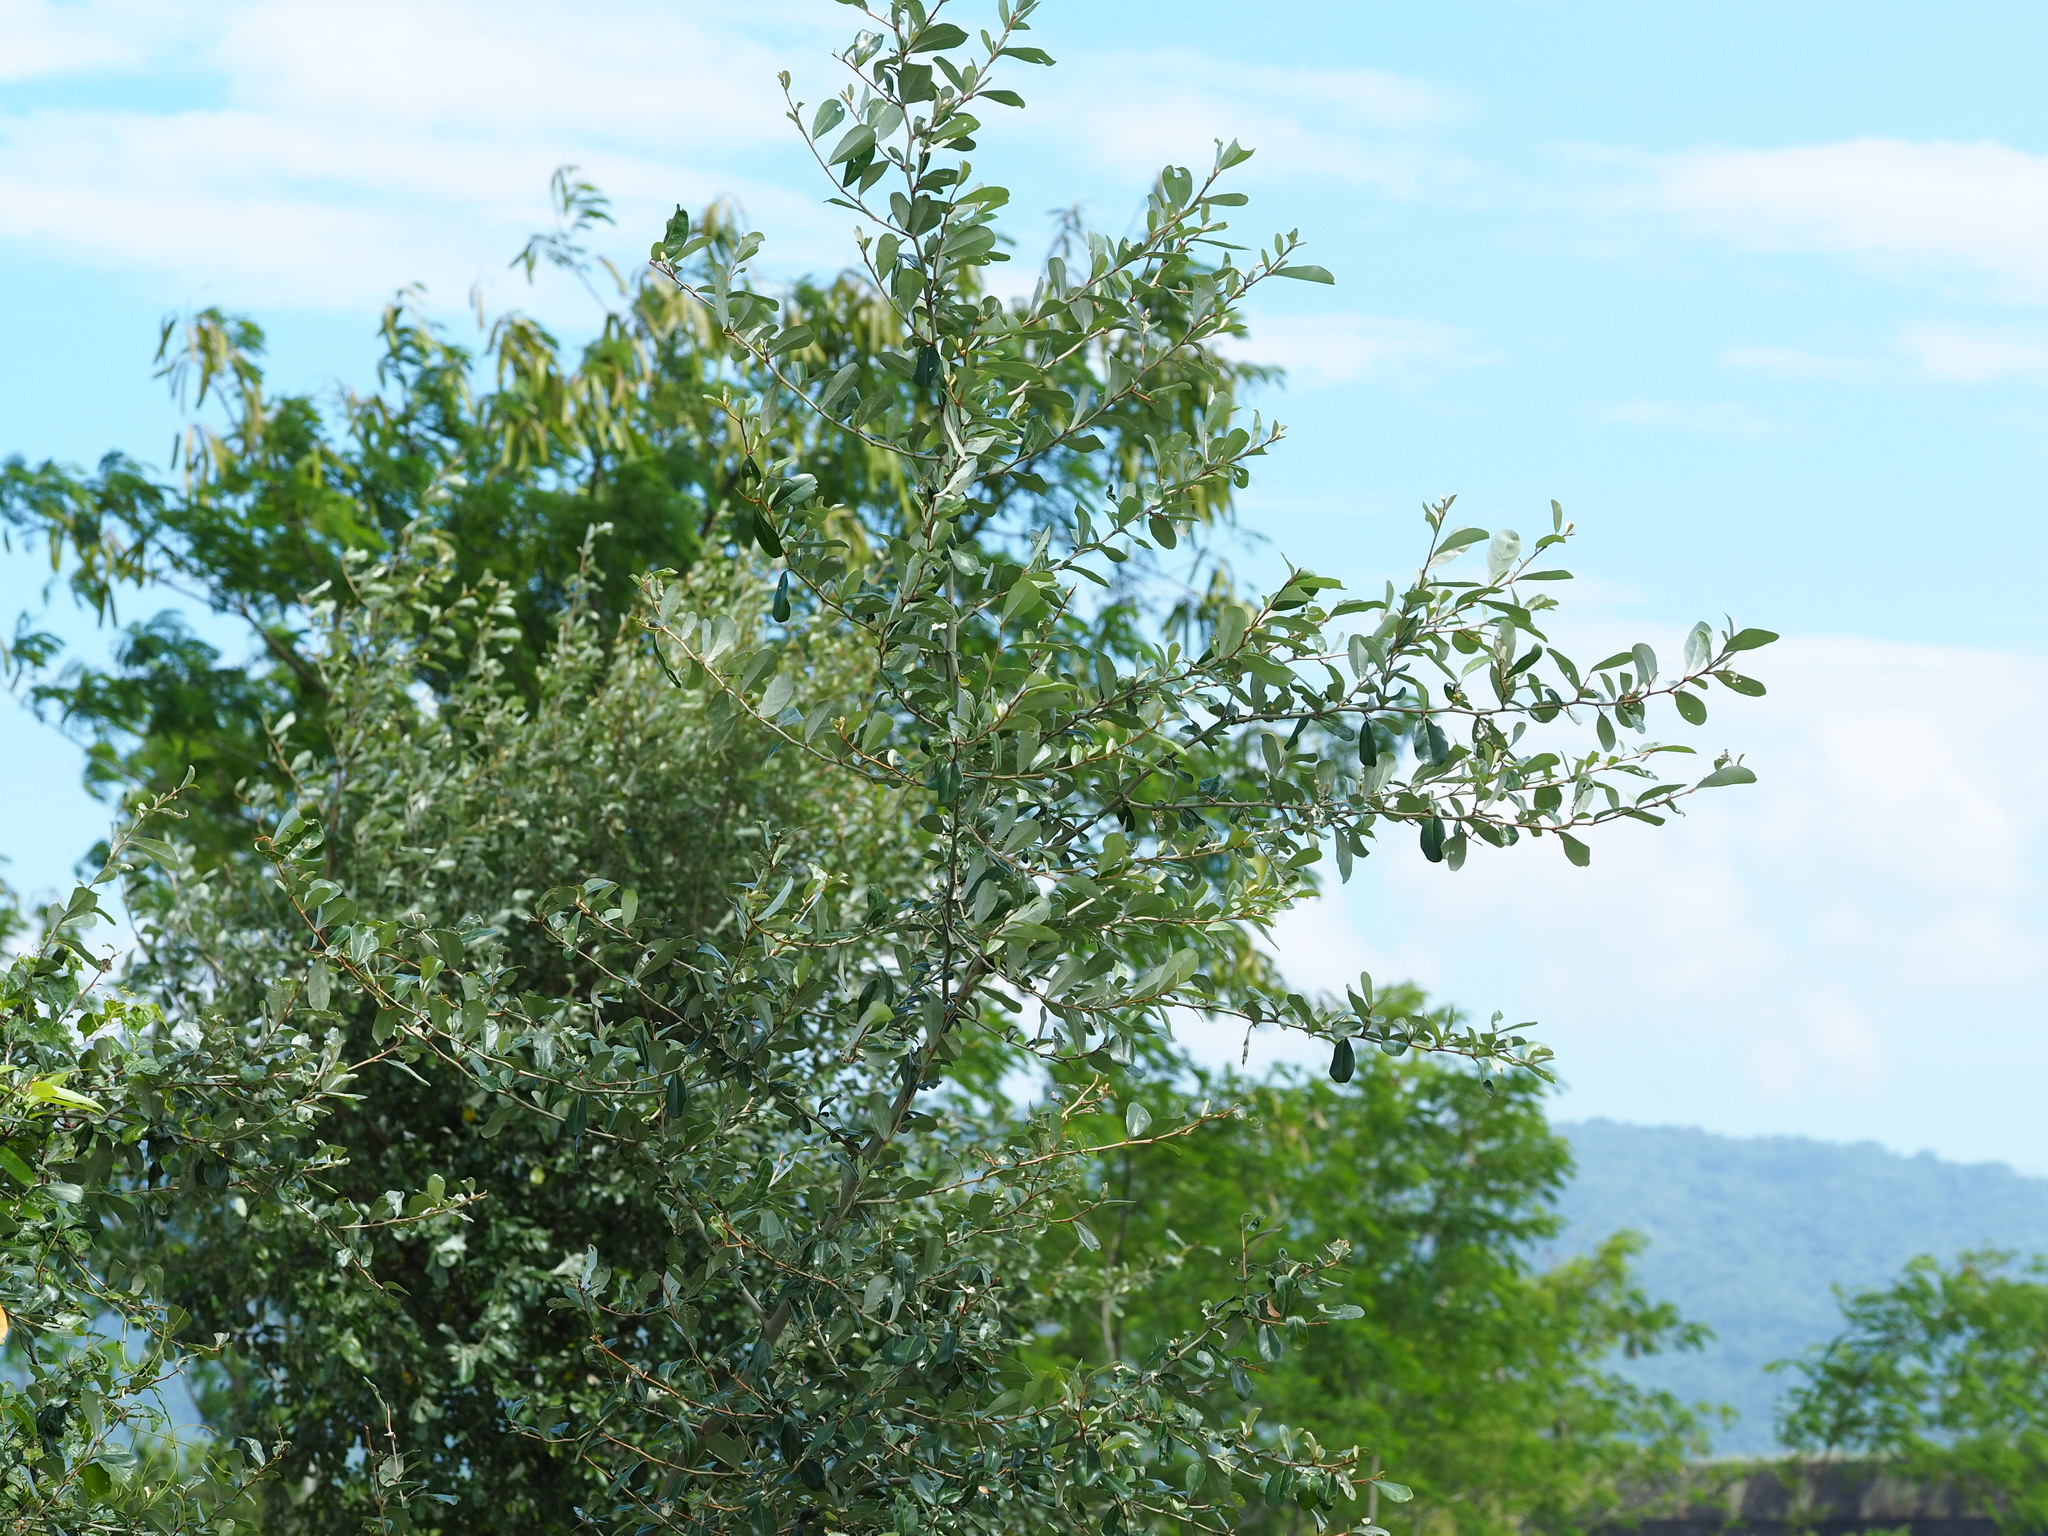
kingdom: Plantae
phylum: Tracheophyta
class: Magnoliopsida
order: Rosales
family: Elaeagnaceae
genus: Elaeagnus
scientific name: Elaeagnus oldhamii
